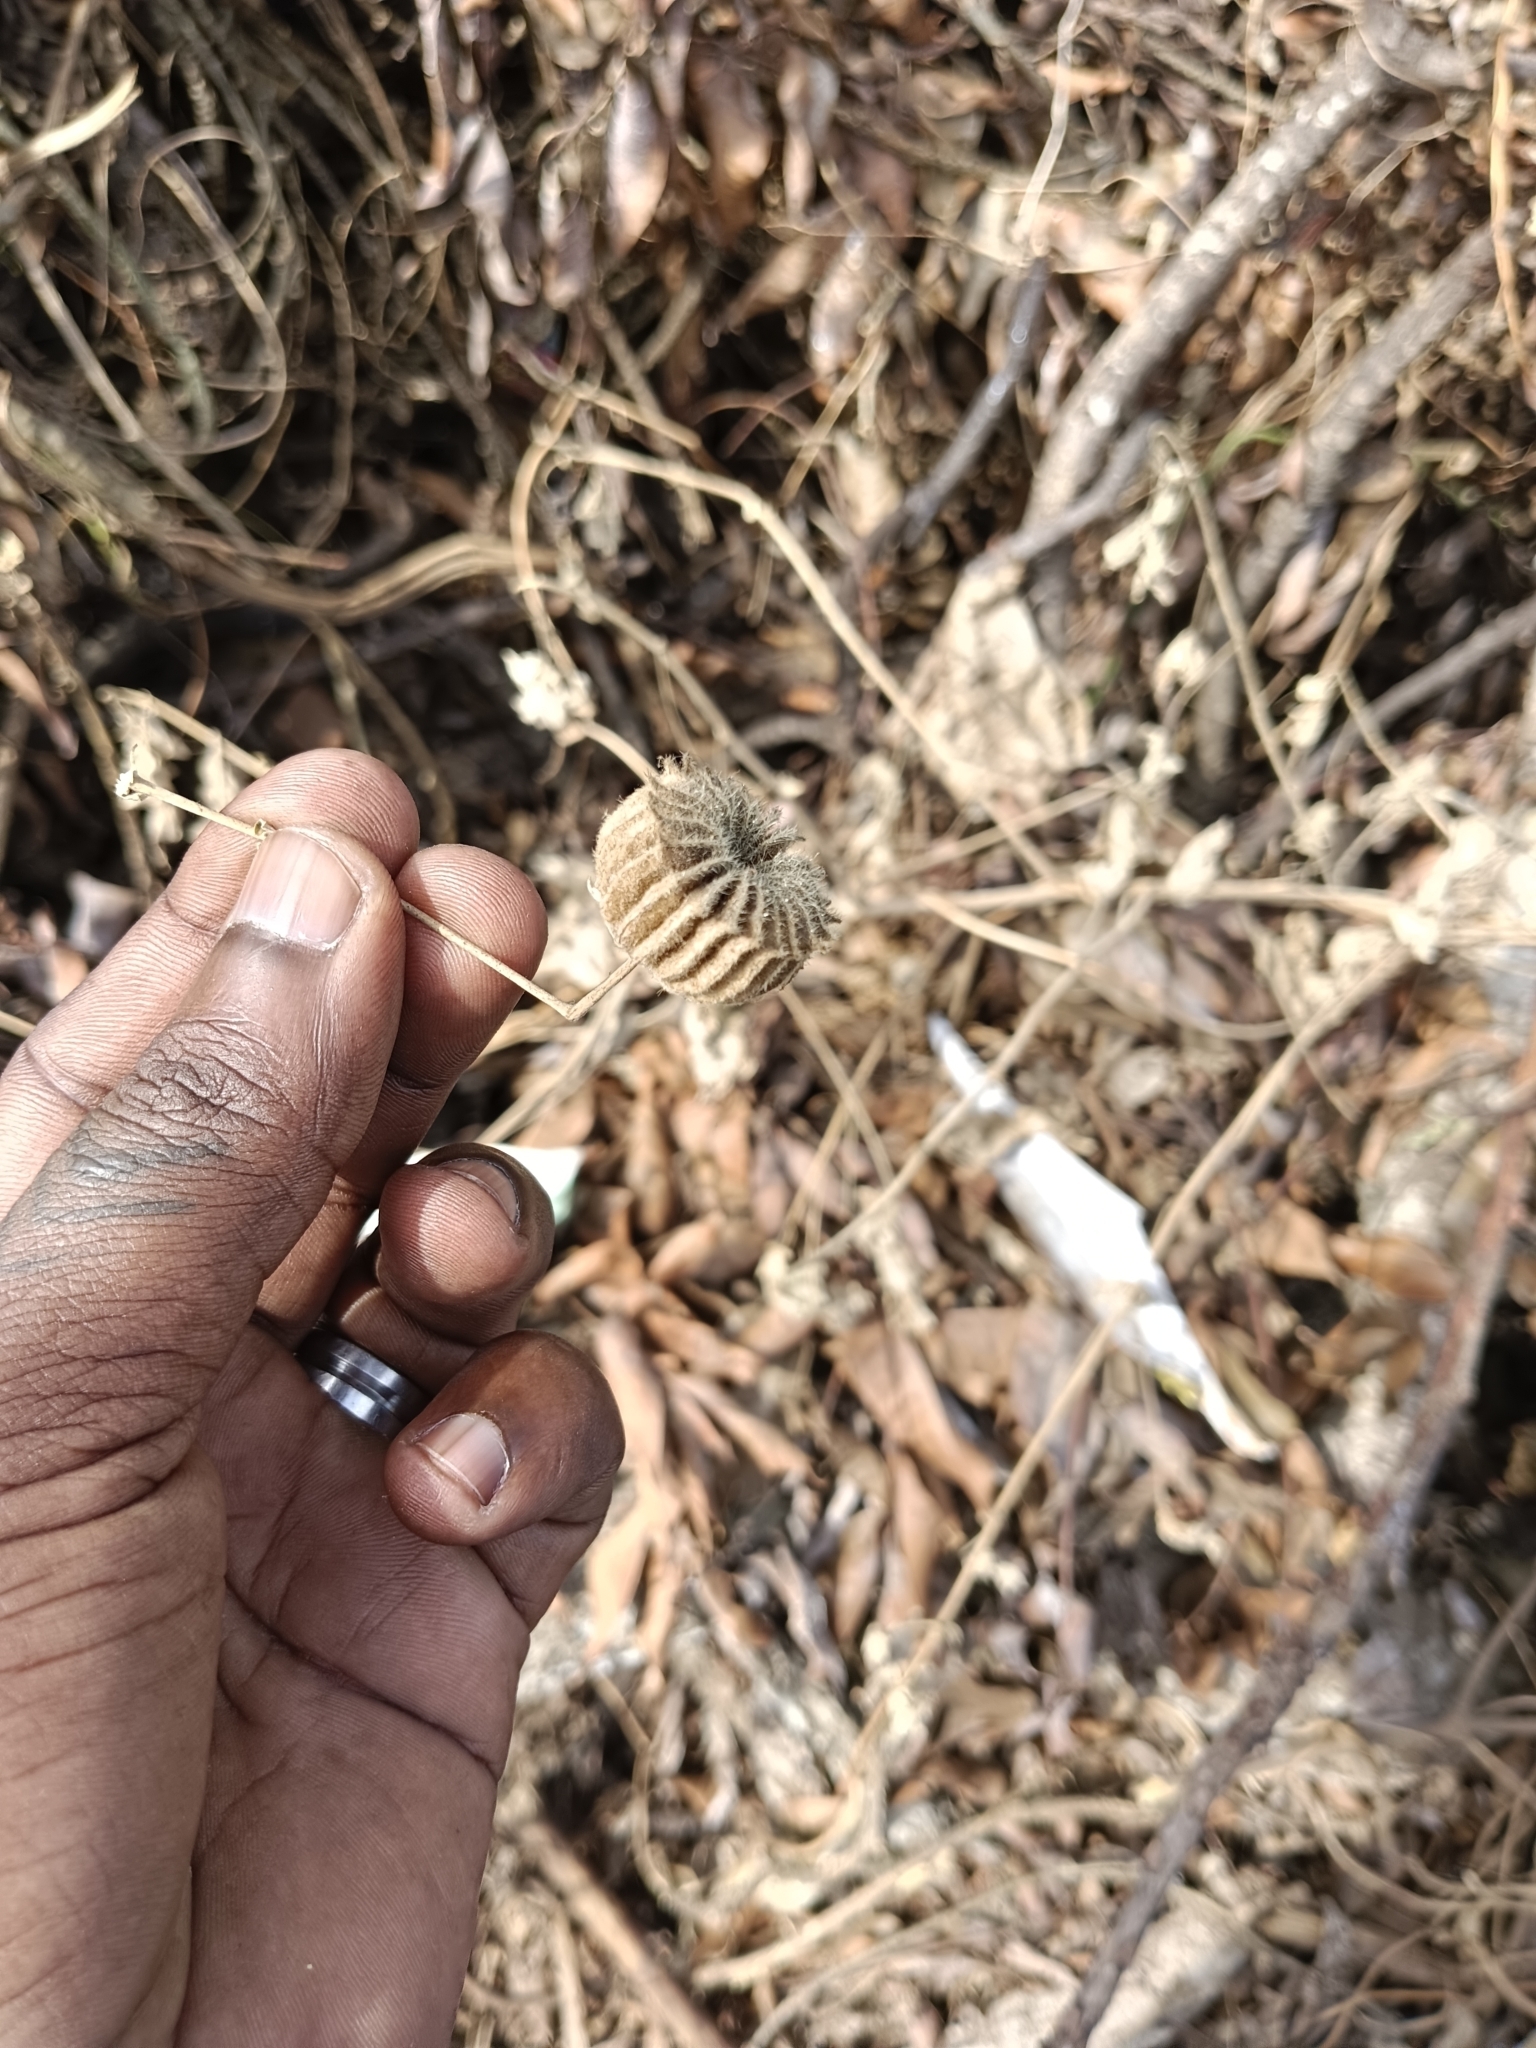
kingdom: Plantae
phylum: Tracheophyta
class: Magnoliopsida
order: Malvales
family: Malvaceae
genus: Abutilon
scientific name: Abutilon indicum
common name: Indian abutilon
